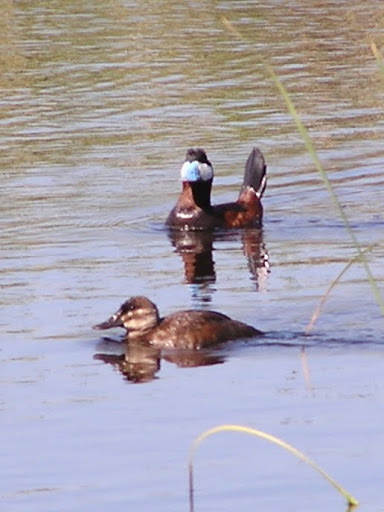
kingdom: Animalia
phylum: Chordata
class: Aves
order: Anseriformes
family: Anatidae
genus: Oxyura
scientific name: Oxyura jamaicensis
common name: Ruddy duck
